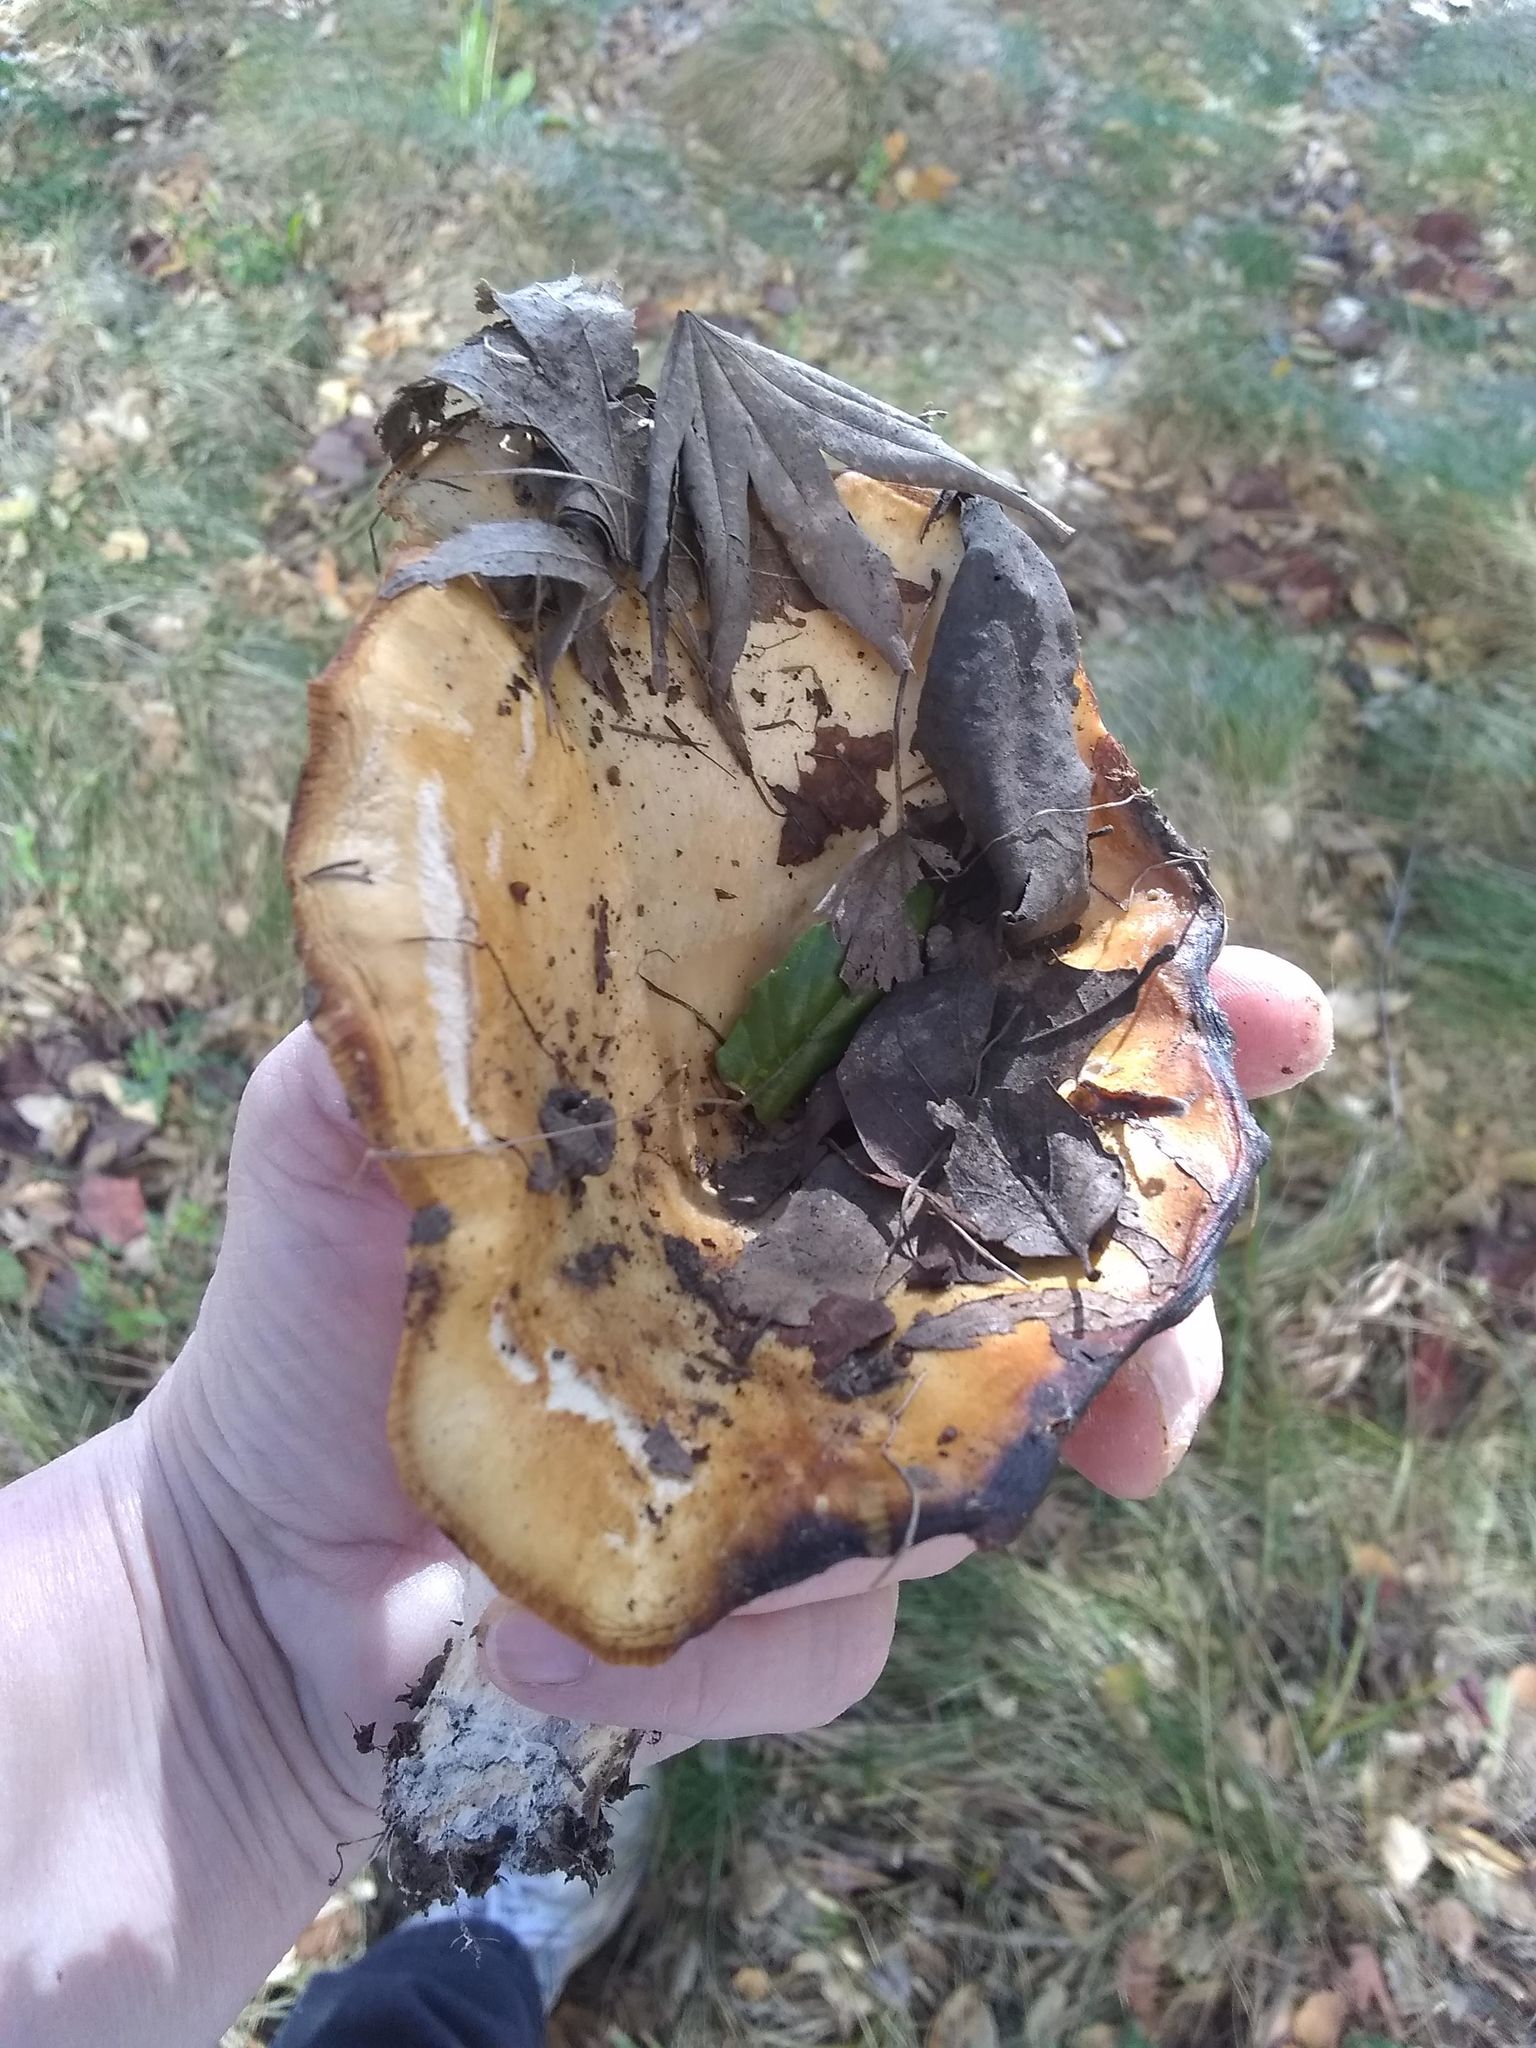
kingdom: Fungi
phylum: Basidiomycota
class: Agaricomycetes
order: Russulales
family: Russulaceae
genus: Lactarius
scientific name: Lactarius alnicola
